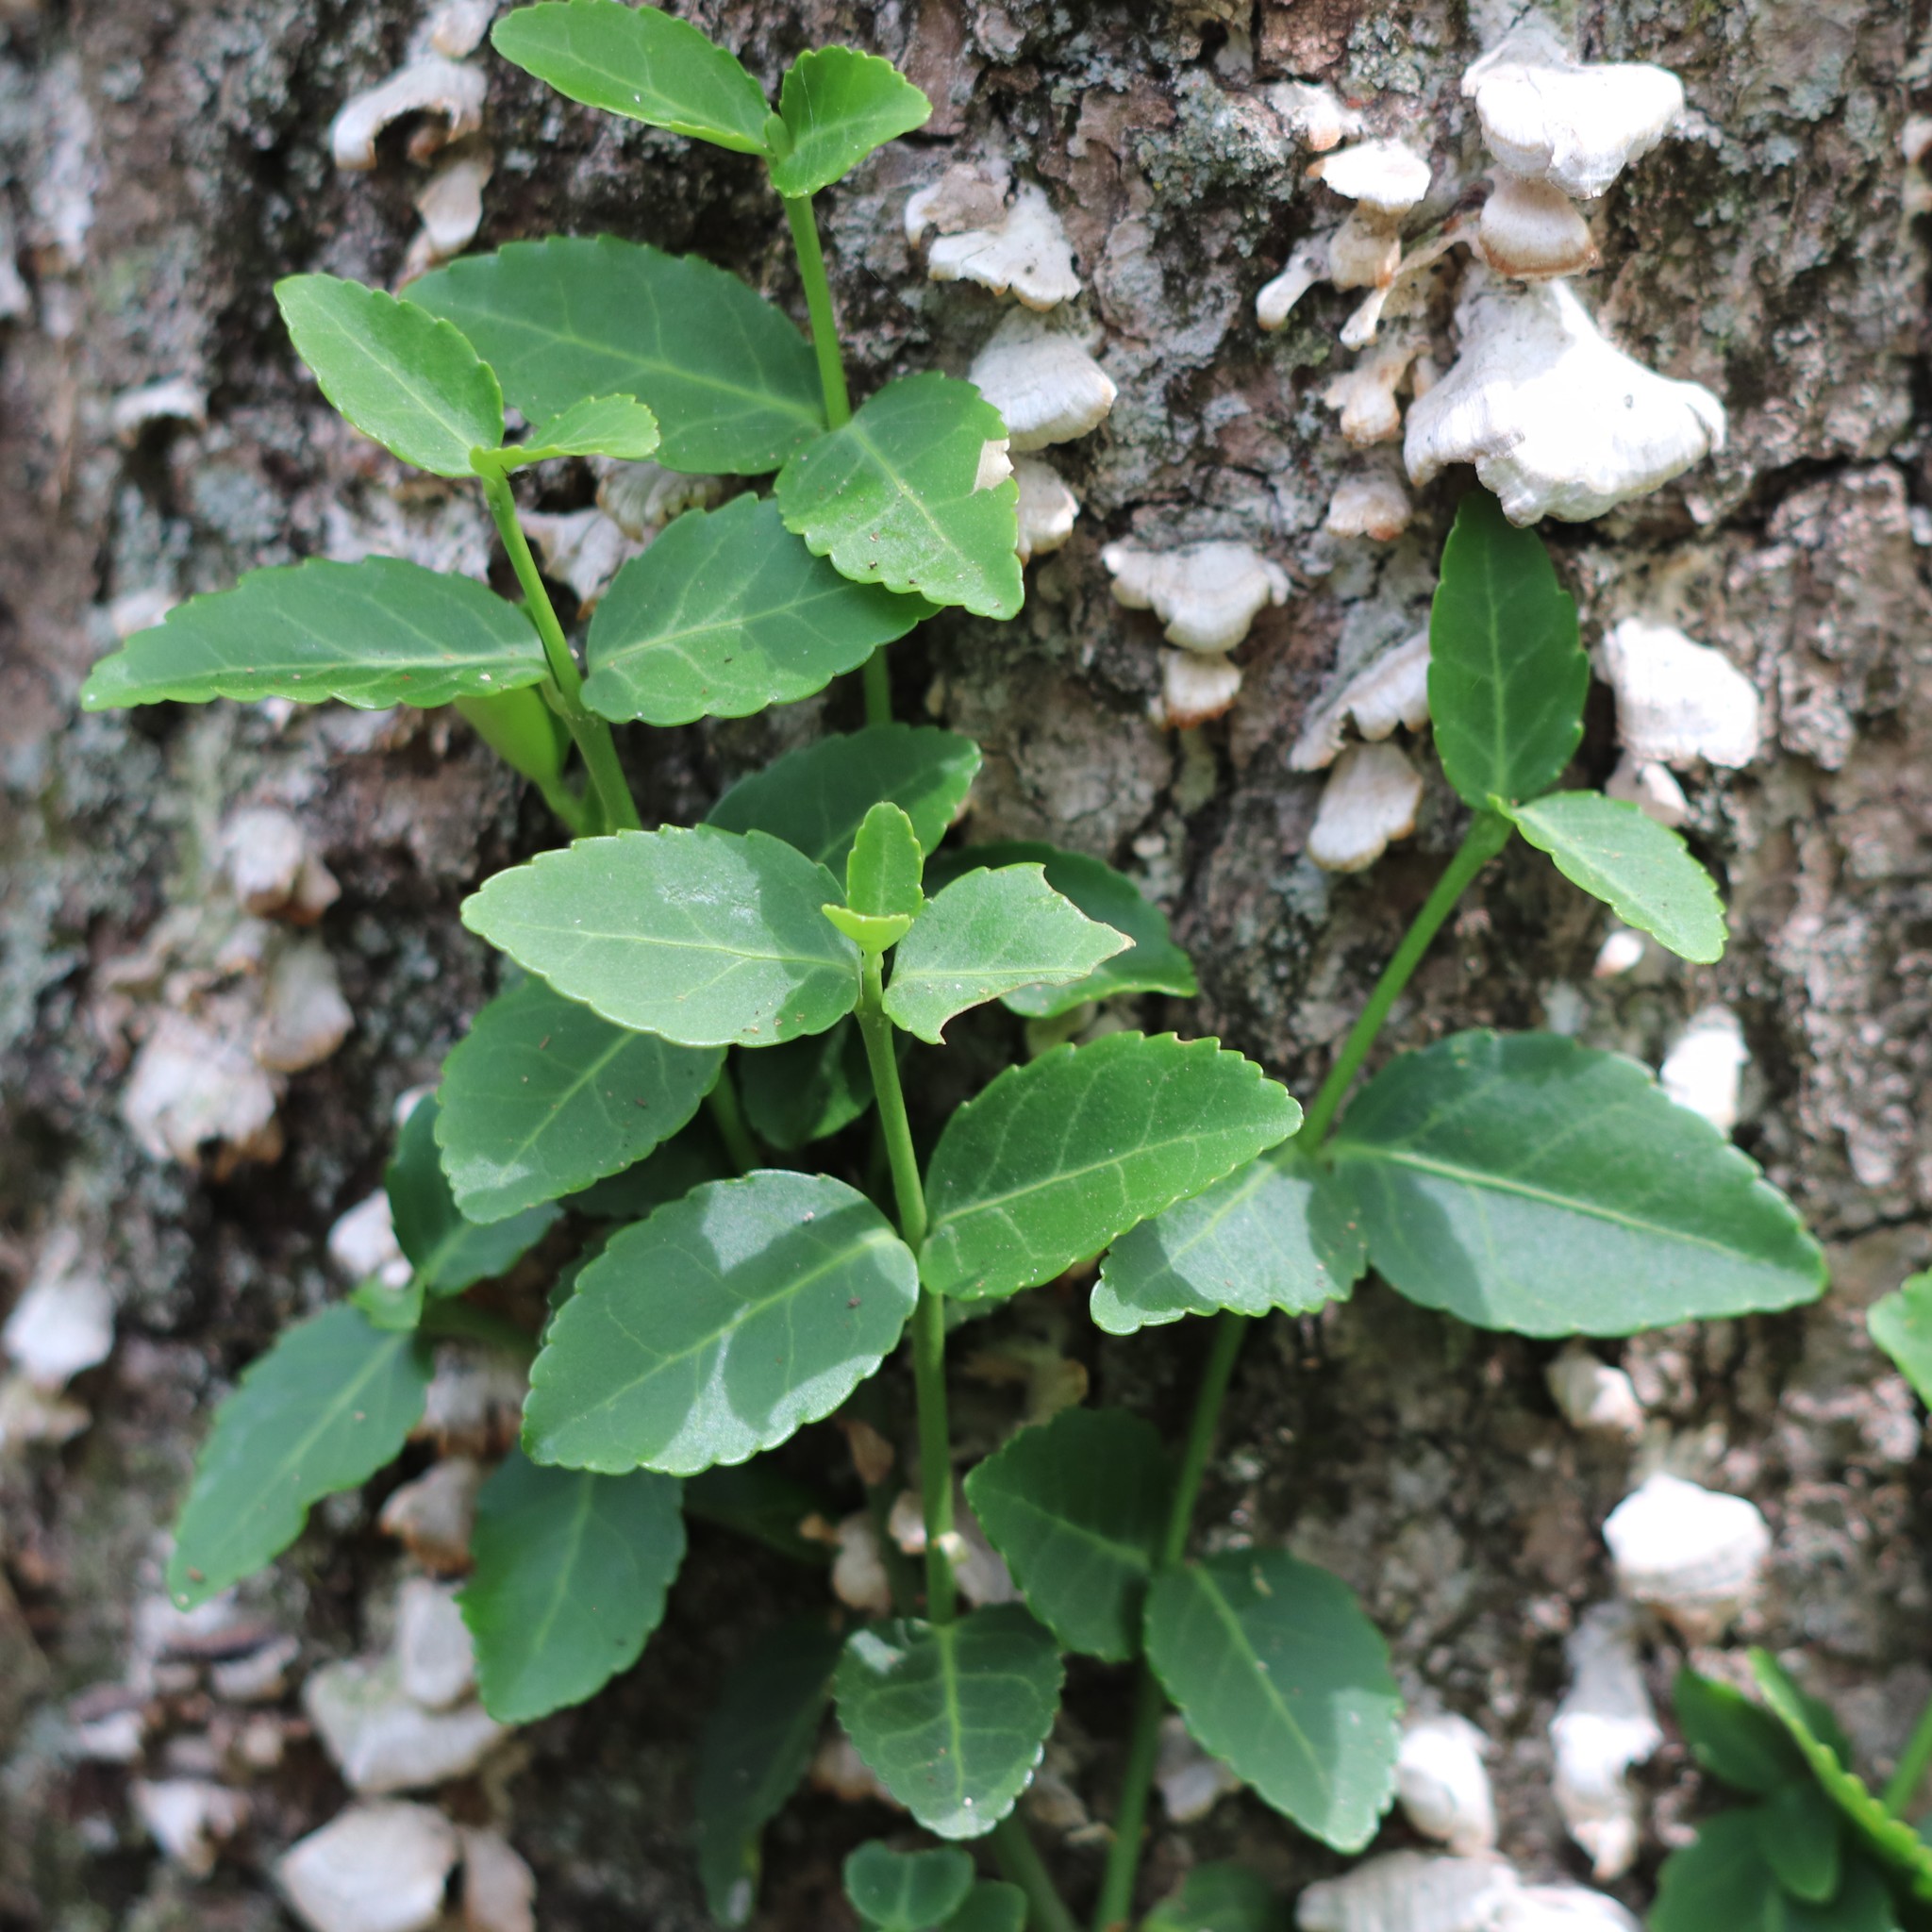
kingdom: Plantae
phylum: Tracheophyta
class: Magnoliopsida
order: Celastrales
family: Celastraceae
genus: Euonymus
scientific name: Euonymus fortunei
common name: Climbing euonymus
